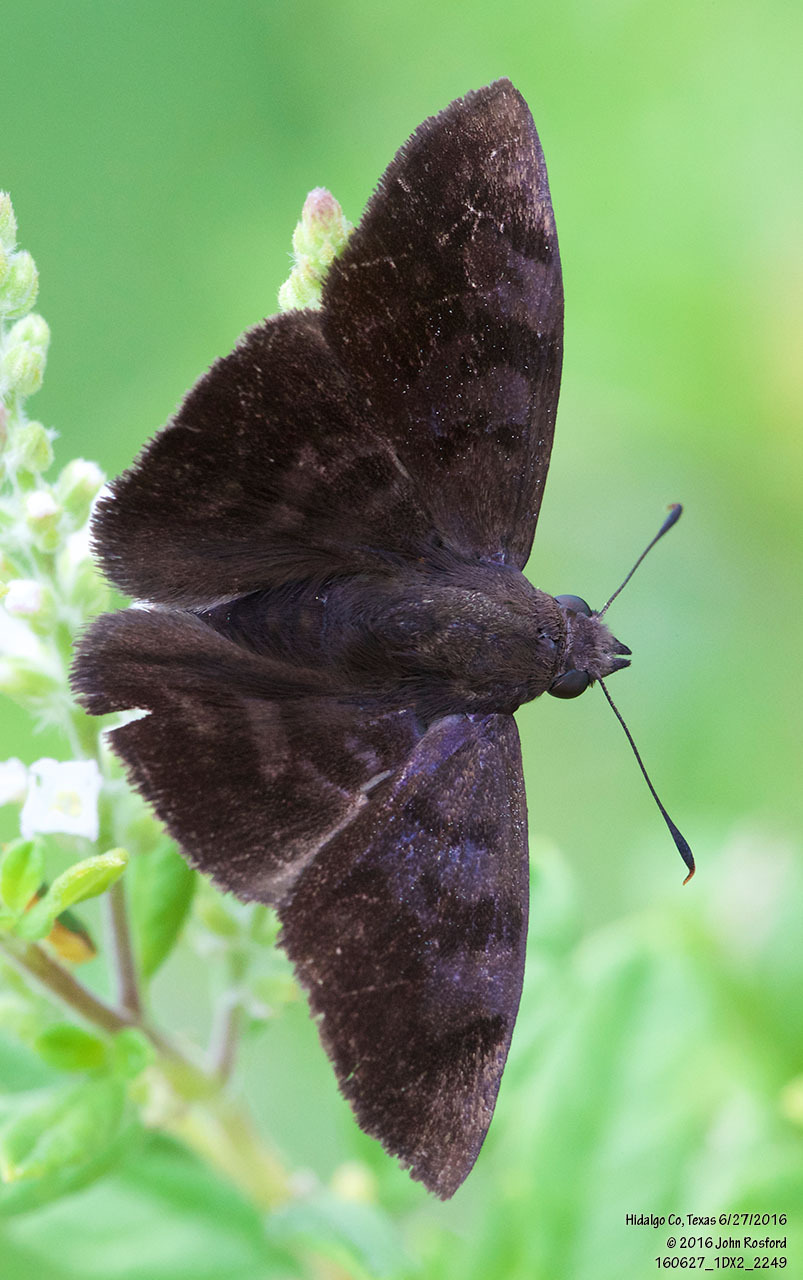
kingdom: Animalia
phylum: Arthropoda
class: Insecta
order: Lepidoptera
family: Hesperiidae
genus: Pellicia
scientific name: Pellicia costimacula
